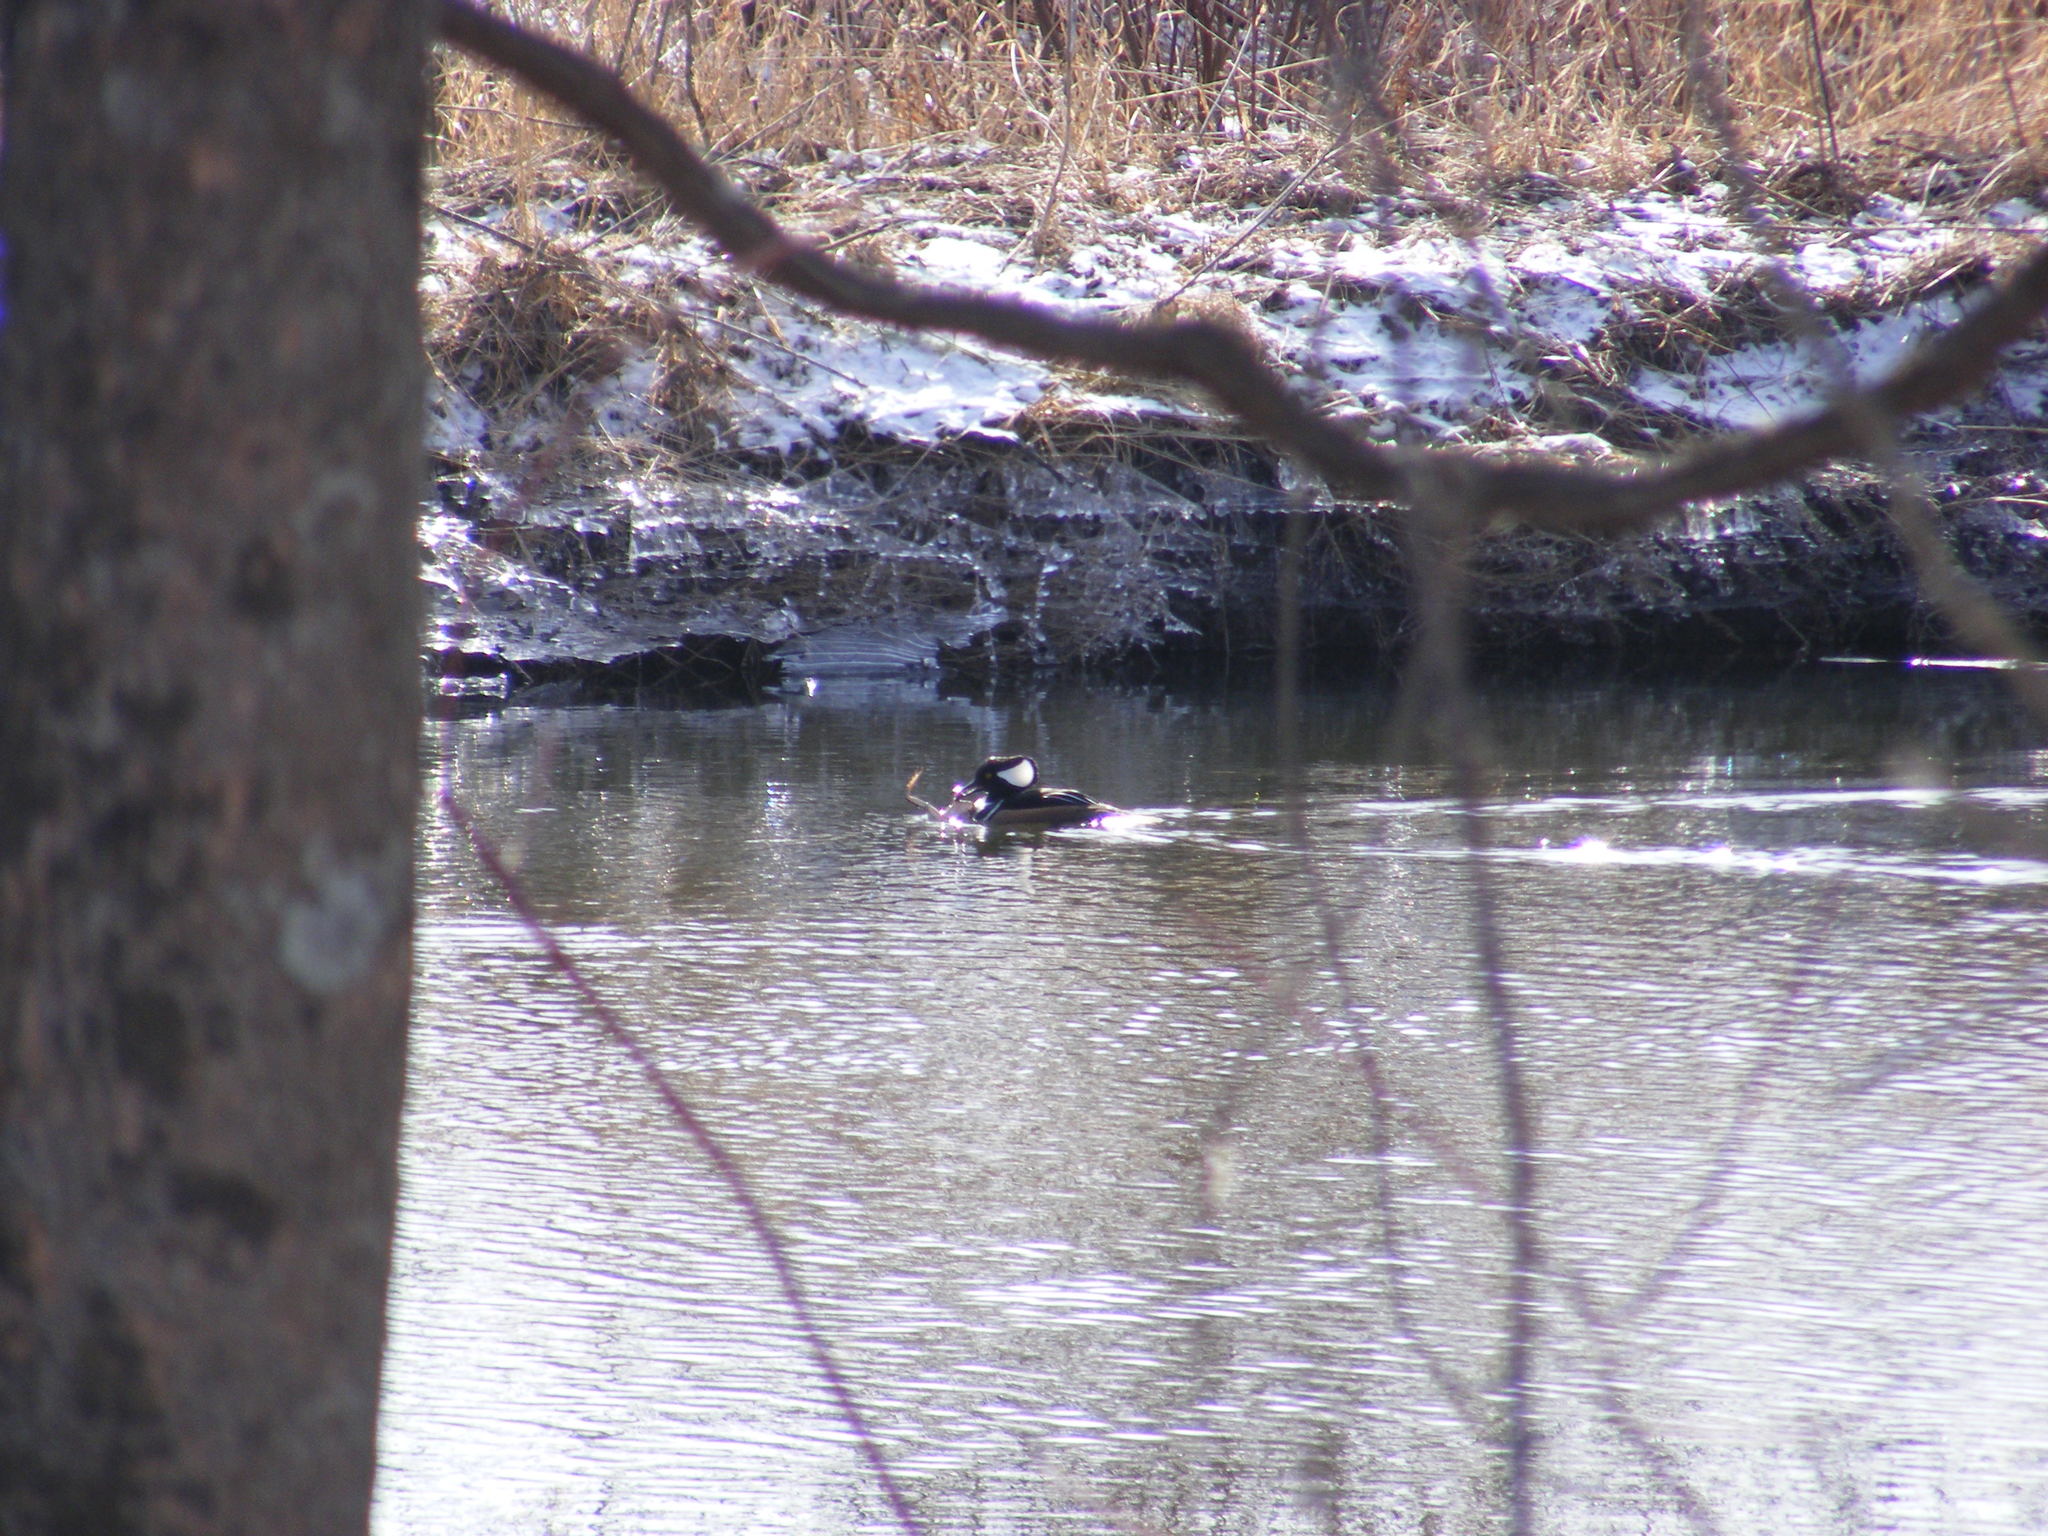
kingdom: Animalia
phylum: Chordata
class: Aves
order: Anseriformes
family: Anatidae
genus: Lophodytes
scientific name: Lophodytes cucullatus
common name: Hooded merganser
